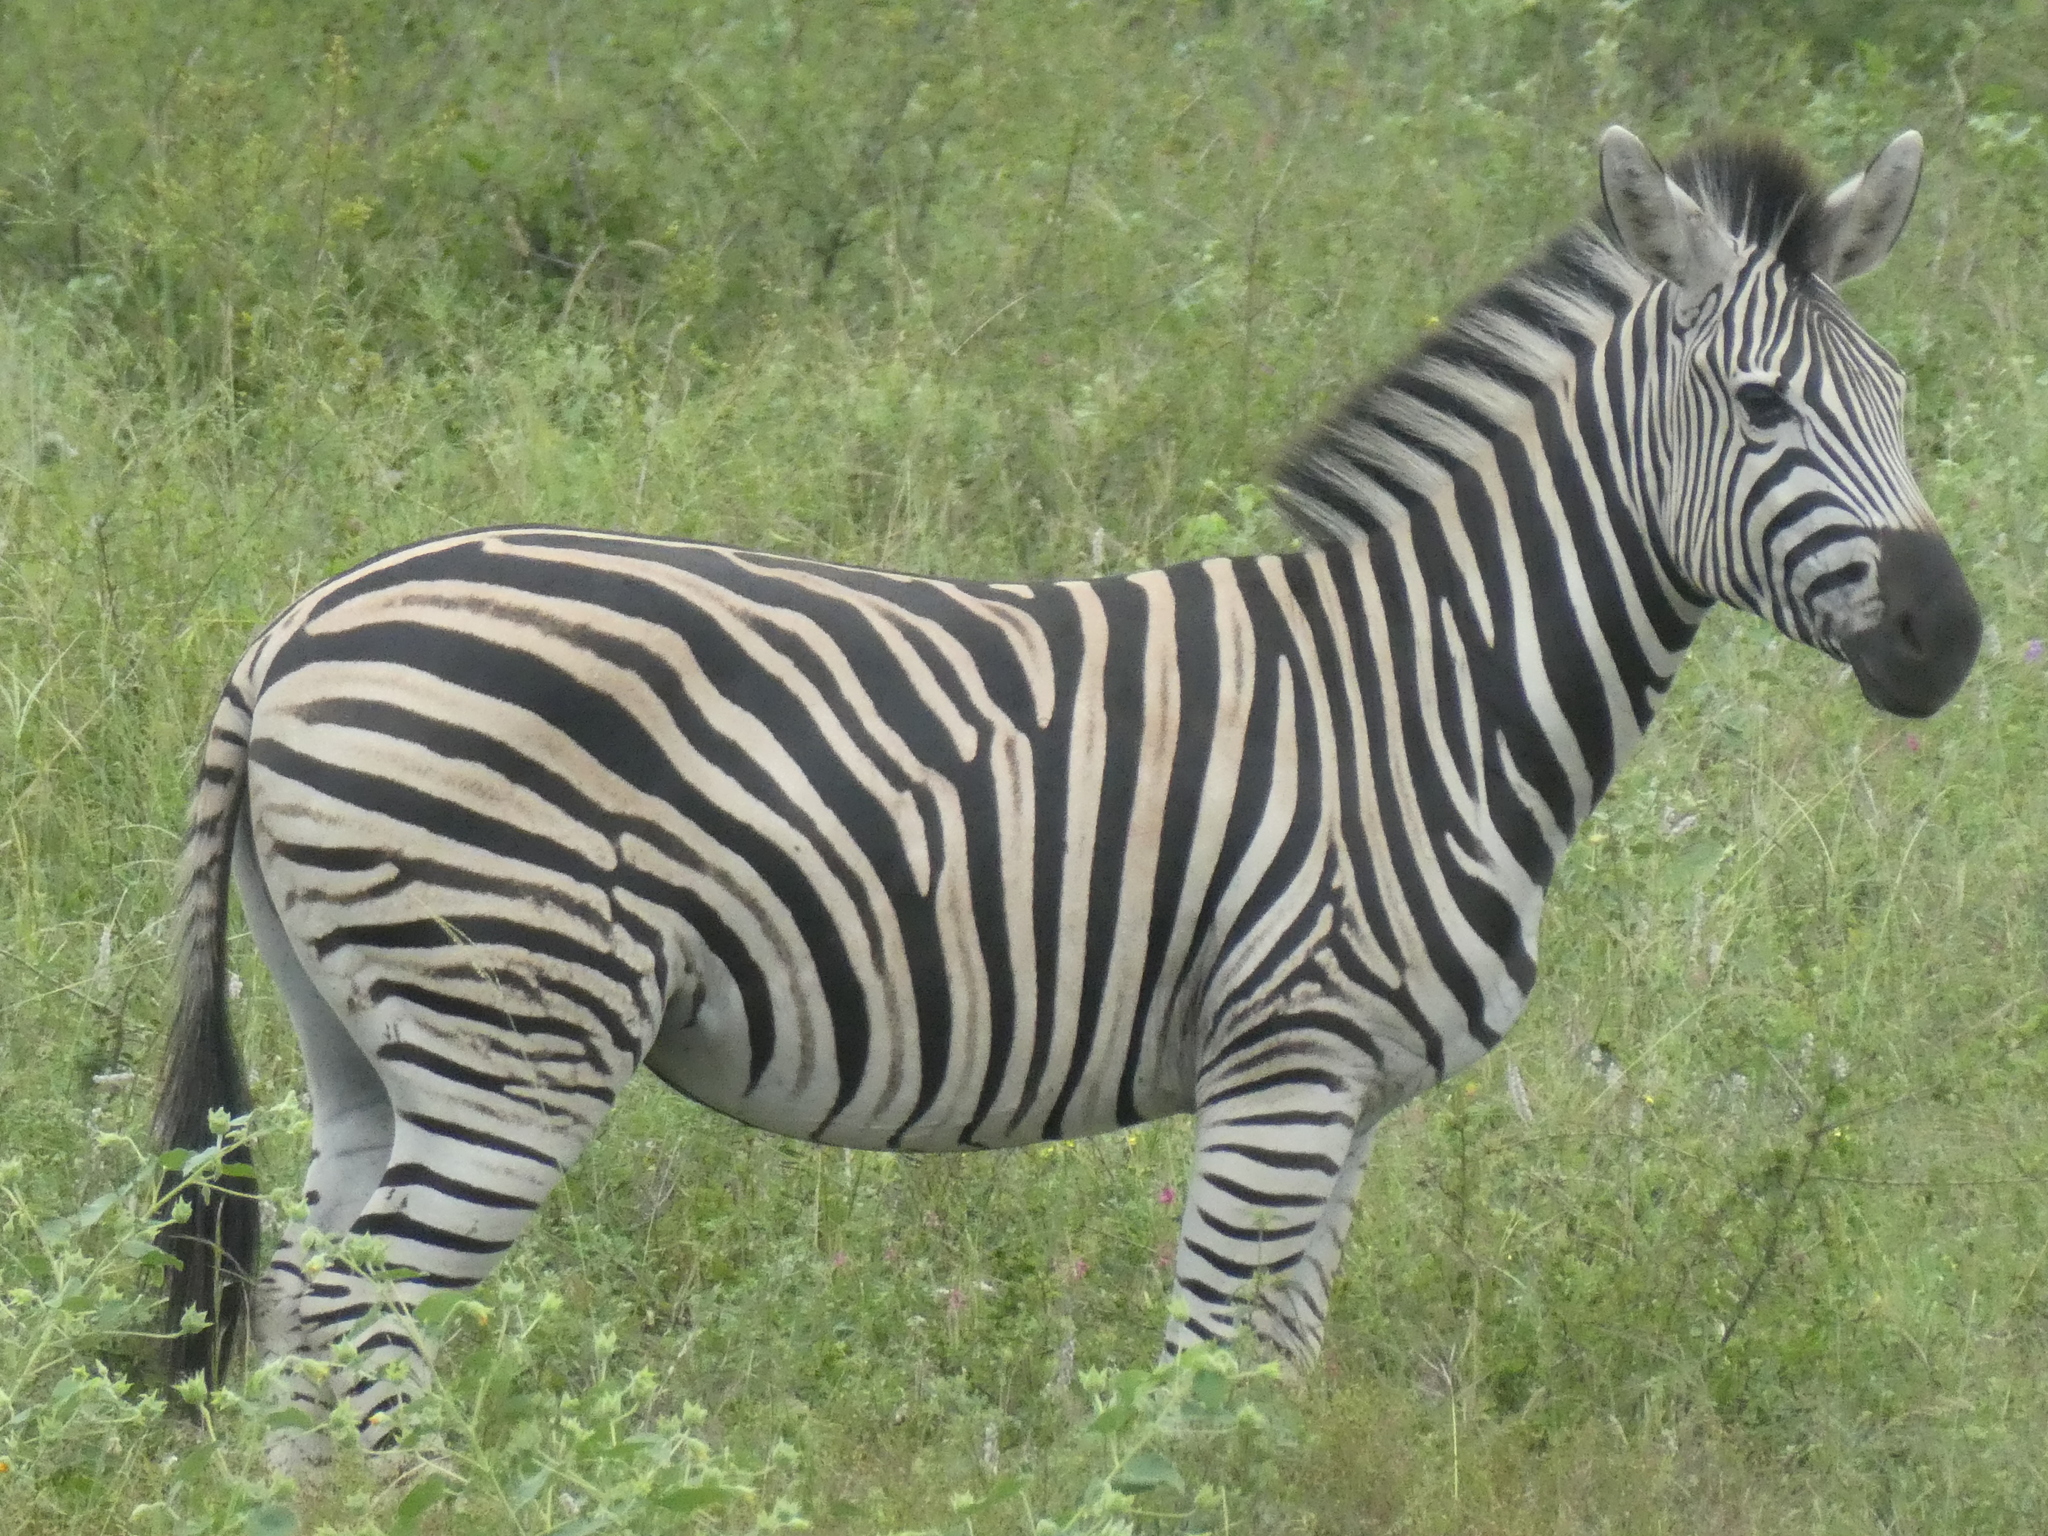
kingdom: Animalia
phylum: Chordata
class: Mammalia
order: Perissodactyla
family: Equidae
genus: Equus
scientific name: Equus quagga
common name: Plains zebra
